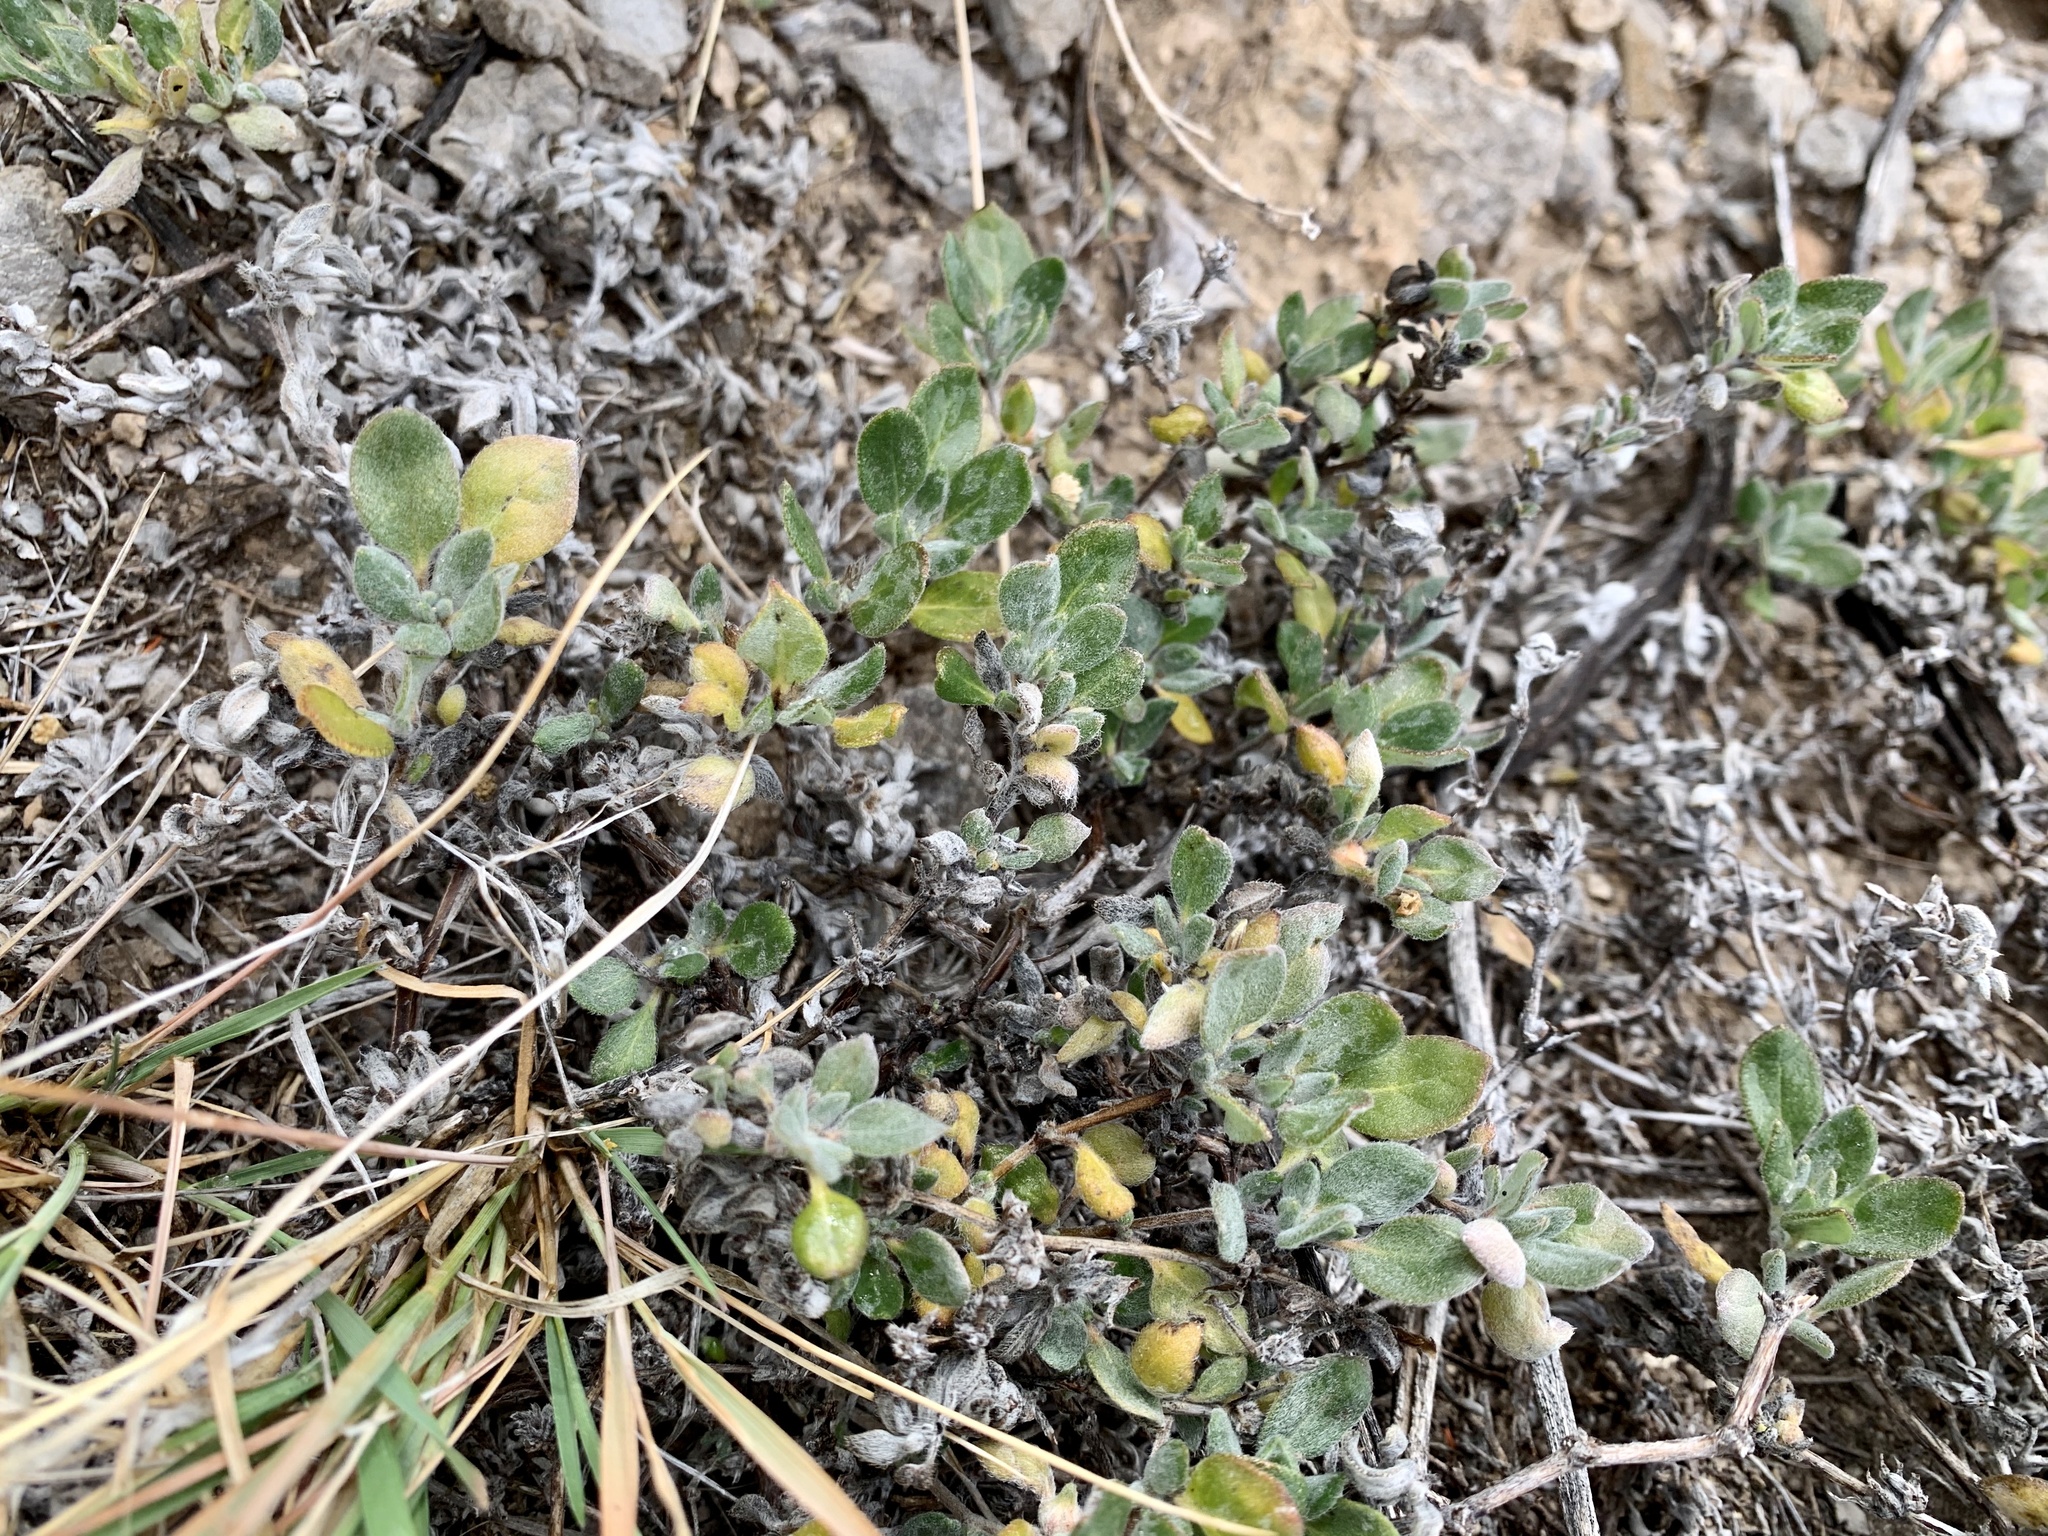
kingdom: Plantae
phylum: Tracheophyta
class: Magnoliopsida
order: Caryophyllales
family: Polygonaceae
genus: Eriogonum
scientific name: Eriogonum wrightii
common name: Bastard-sage
